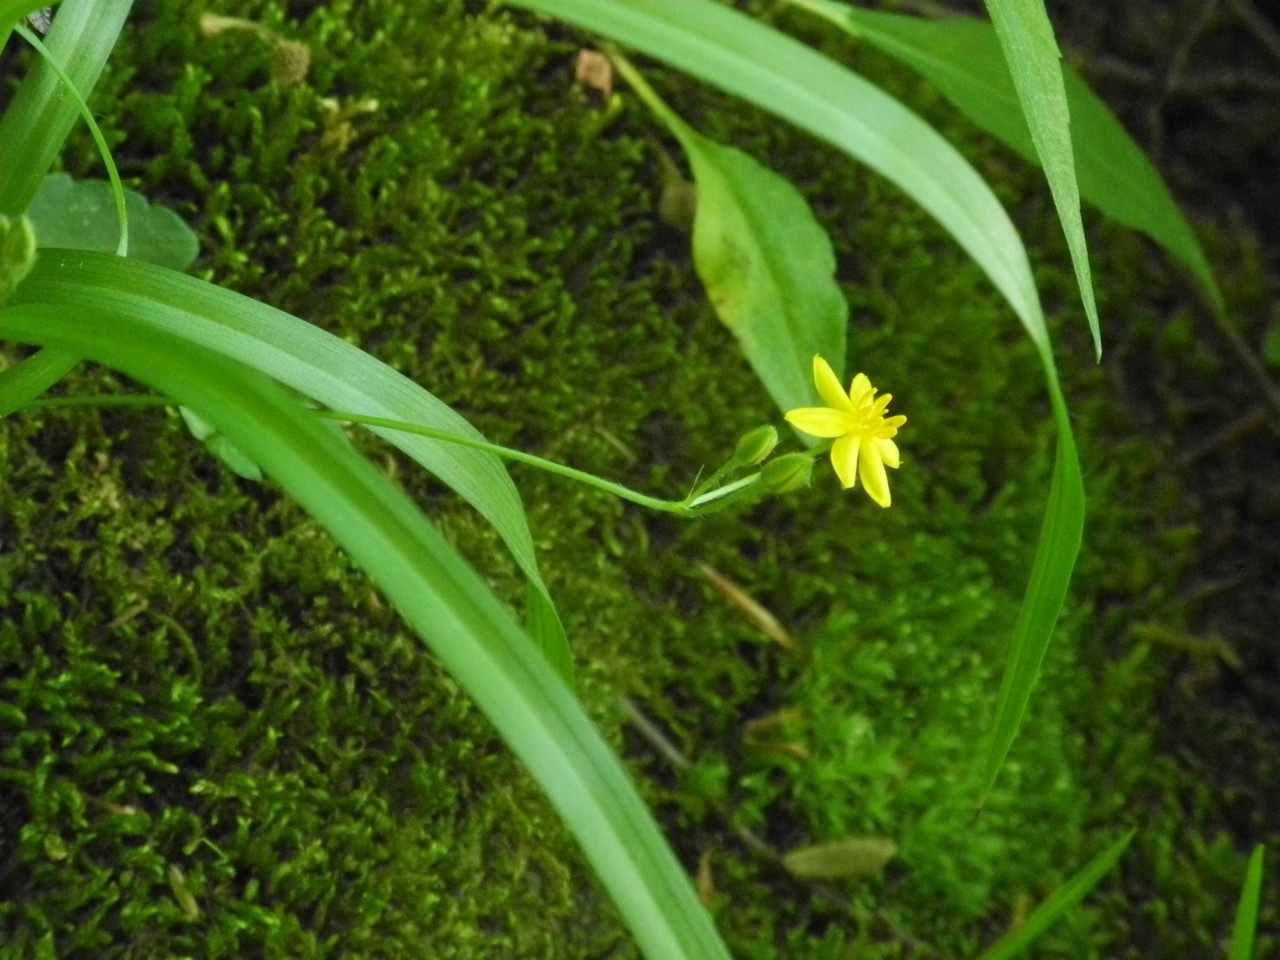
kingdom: Plantae
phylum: Tracheophyta
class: Liliopsida
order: Asparagales
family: Hypoxidaceae
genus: Hypoxis
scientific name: Hypoxis hirsuta
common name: Common goldstar
